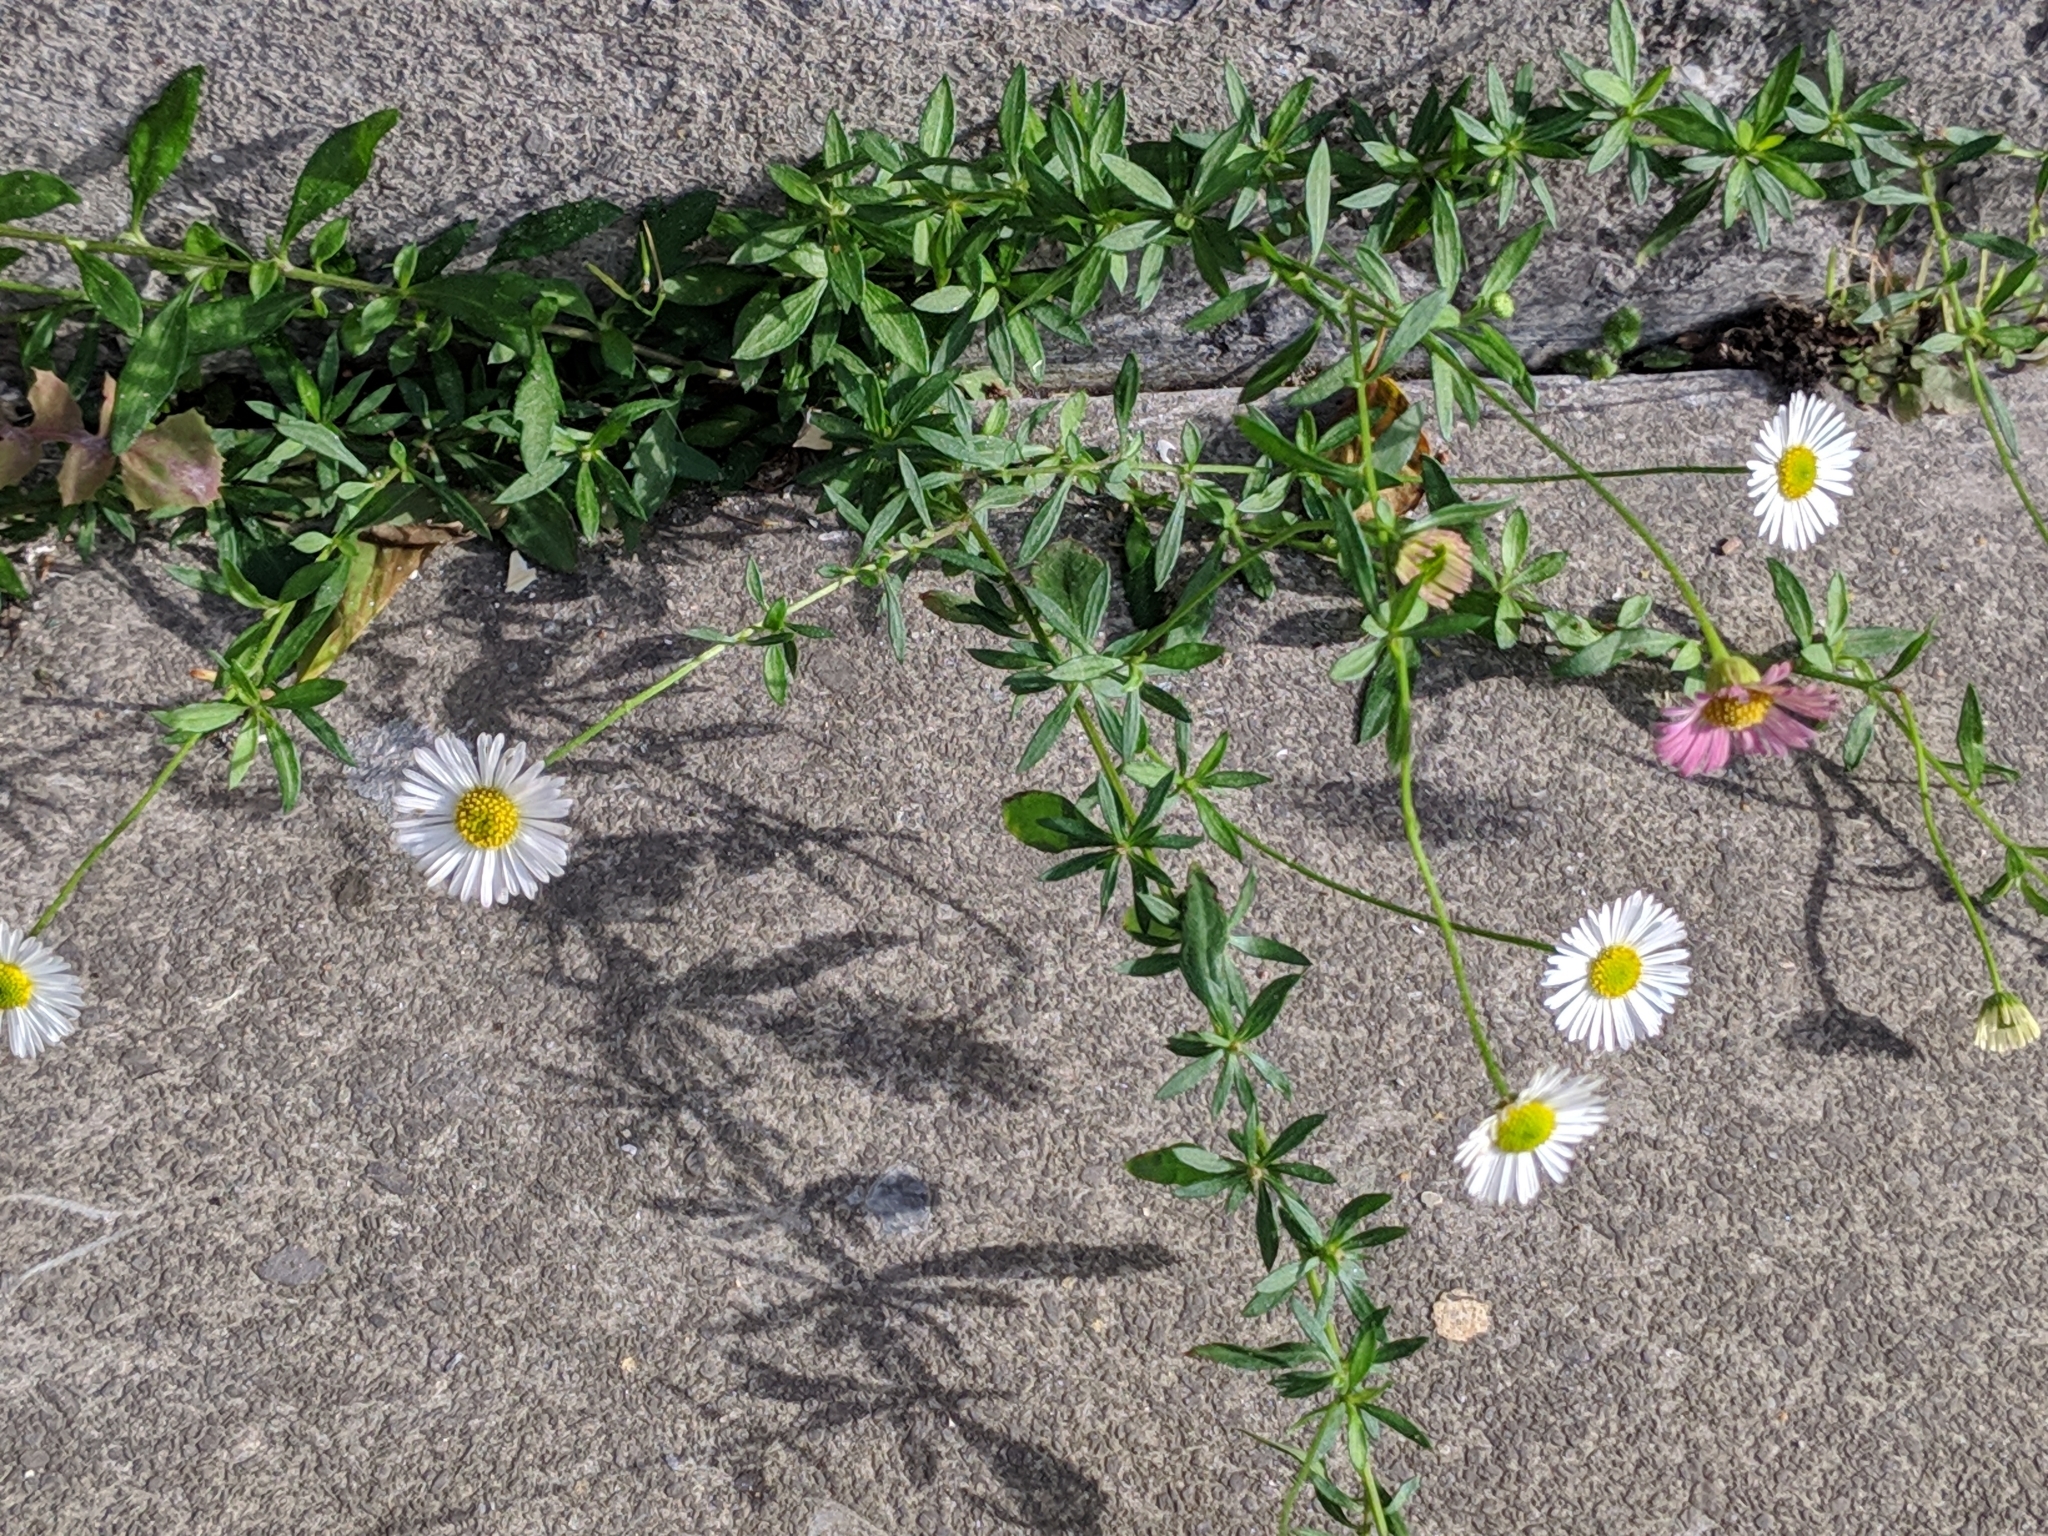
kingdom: Plantae
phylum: Tracheophyta
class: Magnoliopsida
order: Asterales
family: Asteraceae
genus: Erigeron
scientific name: Erigeron karvinskianus
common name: Mexican fleabane
